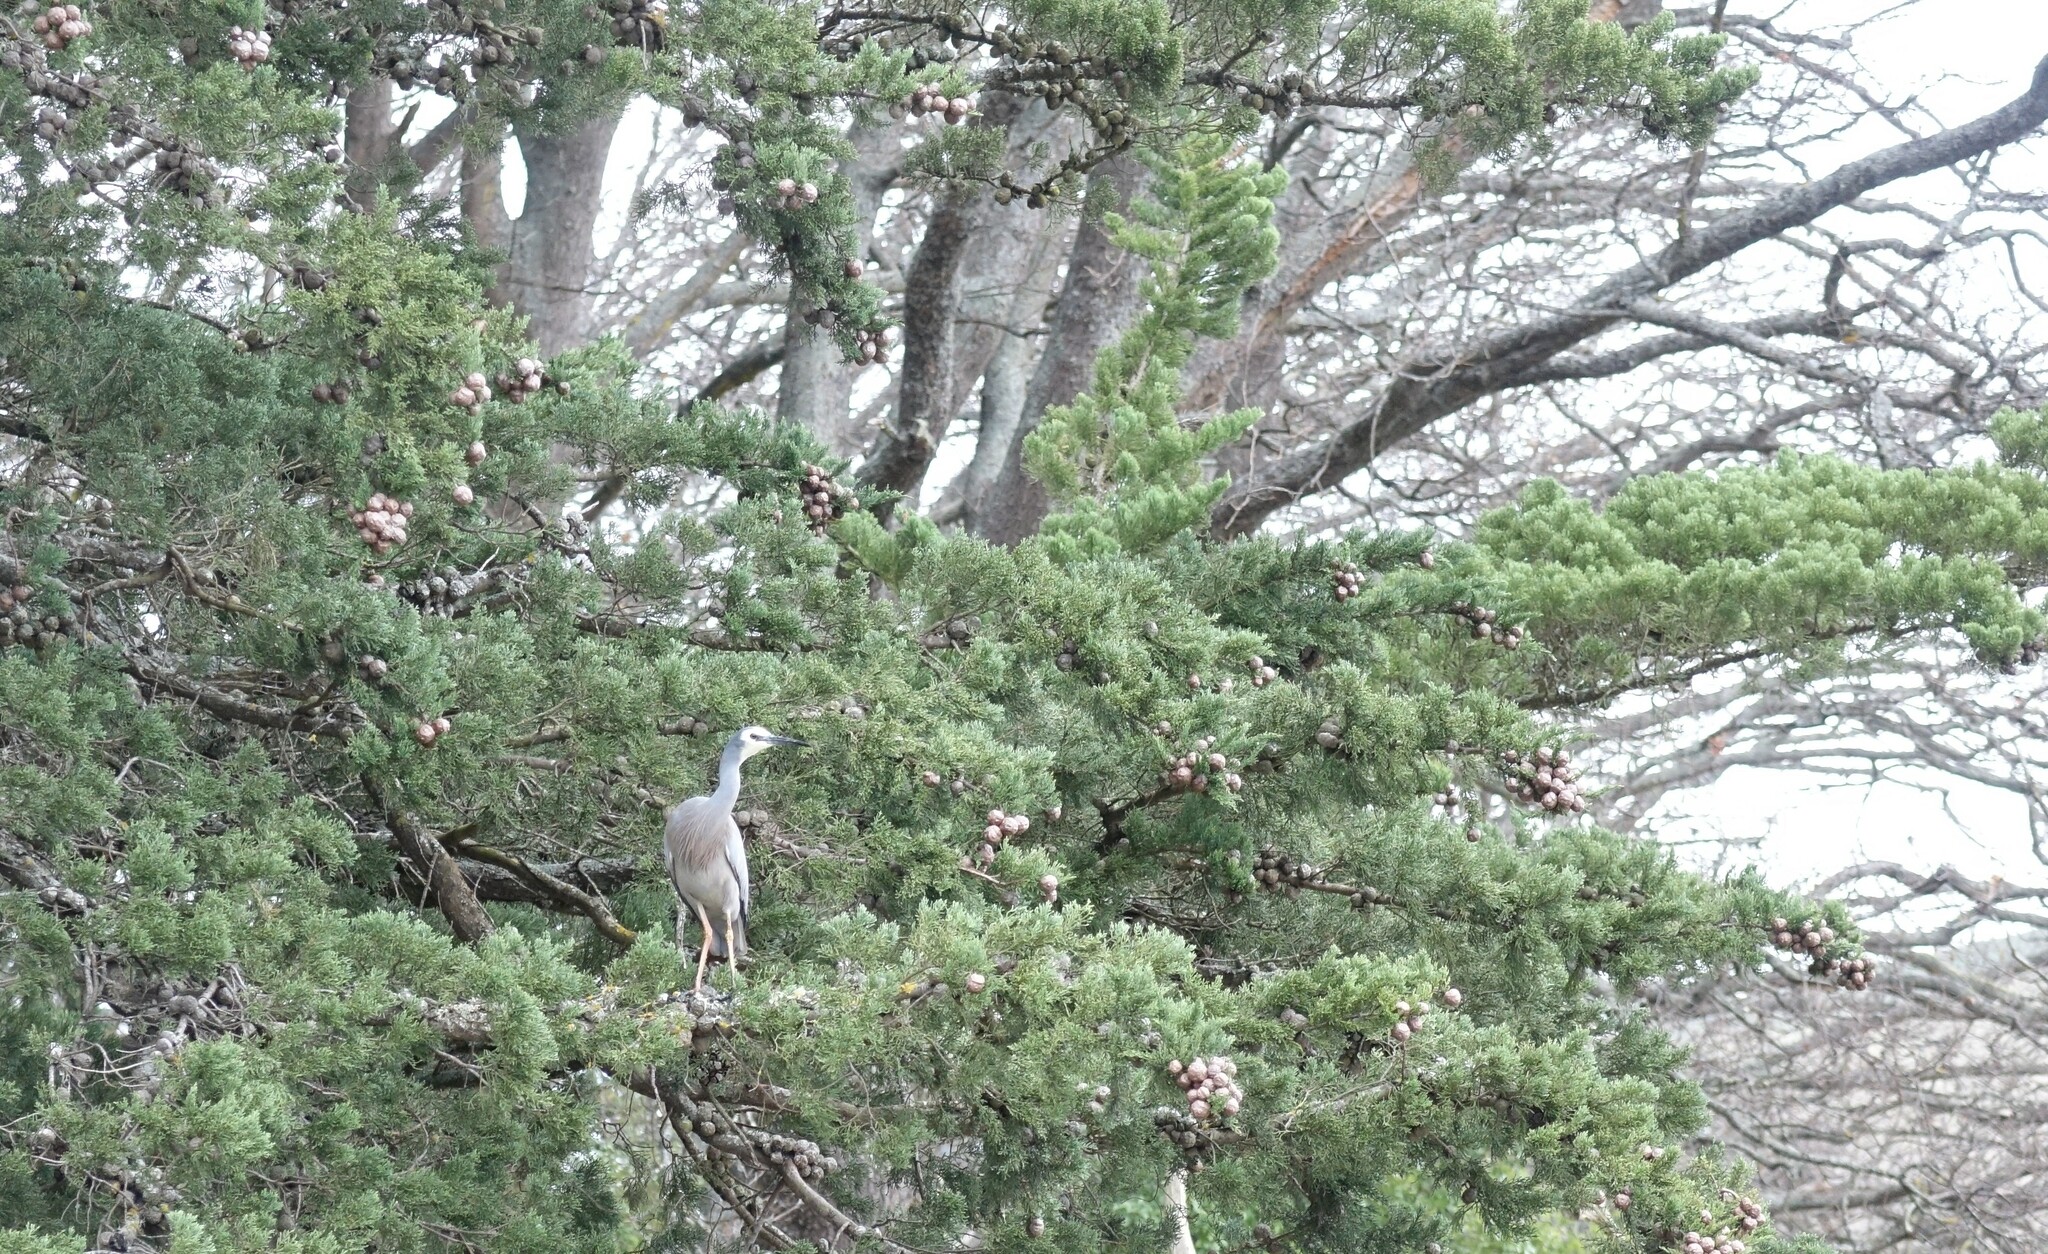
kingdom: Animalia
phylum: Chordata
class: Aves
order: Pelecaniformes
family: Ardeidae
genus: Egretta
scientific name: Egretta novaehollandiae
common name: White-faced heron
